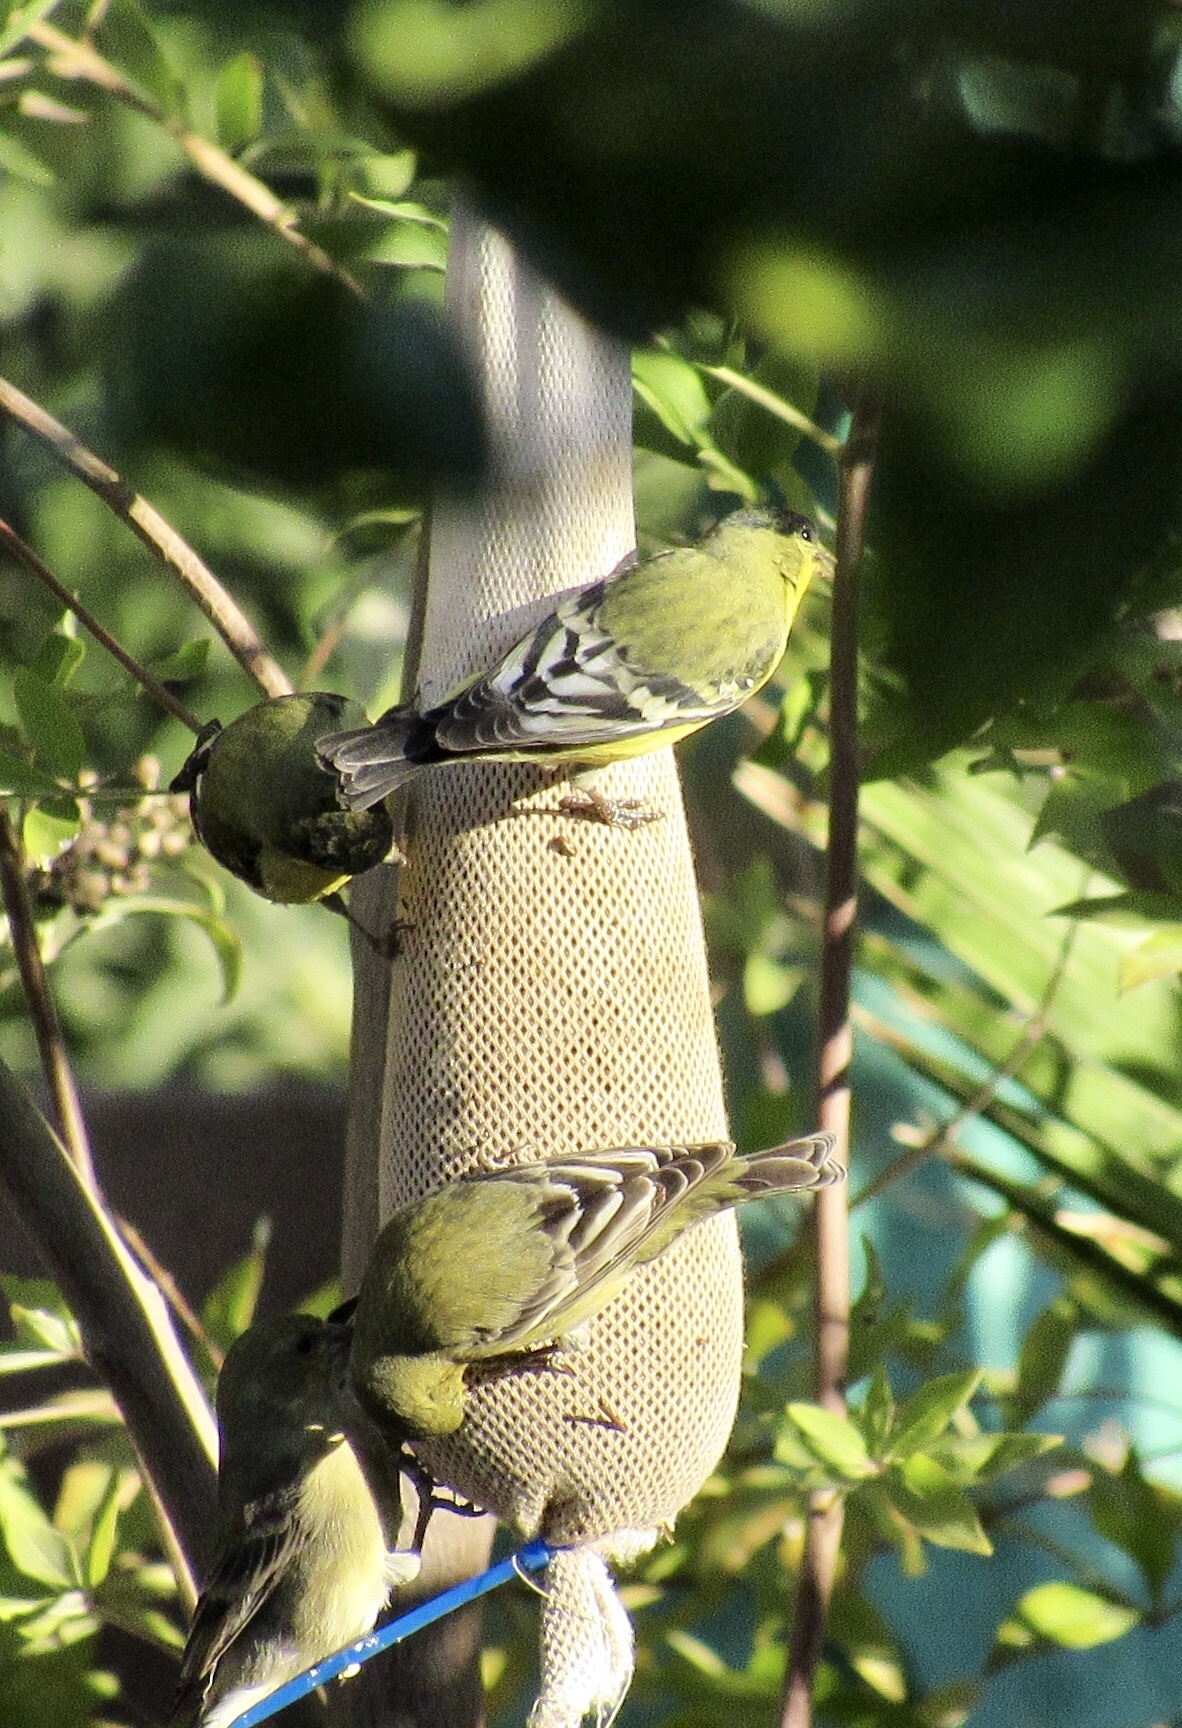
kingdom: Animalia
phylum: Chordata
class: Aves
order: Passeriformes
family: Fringillidae
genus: Spinus
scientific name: Spinus psaltria
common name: Lesser goldfinch
